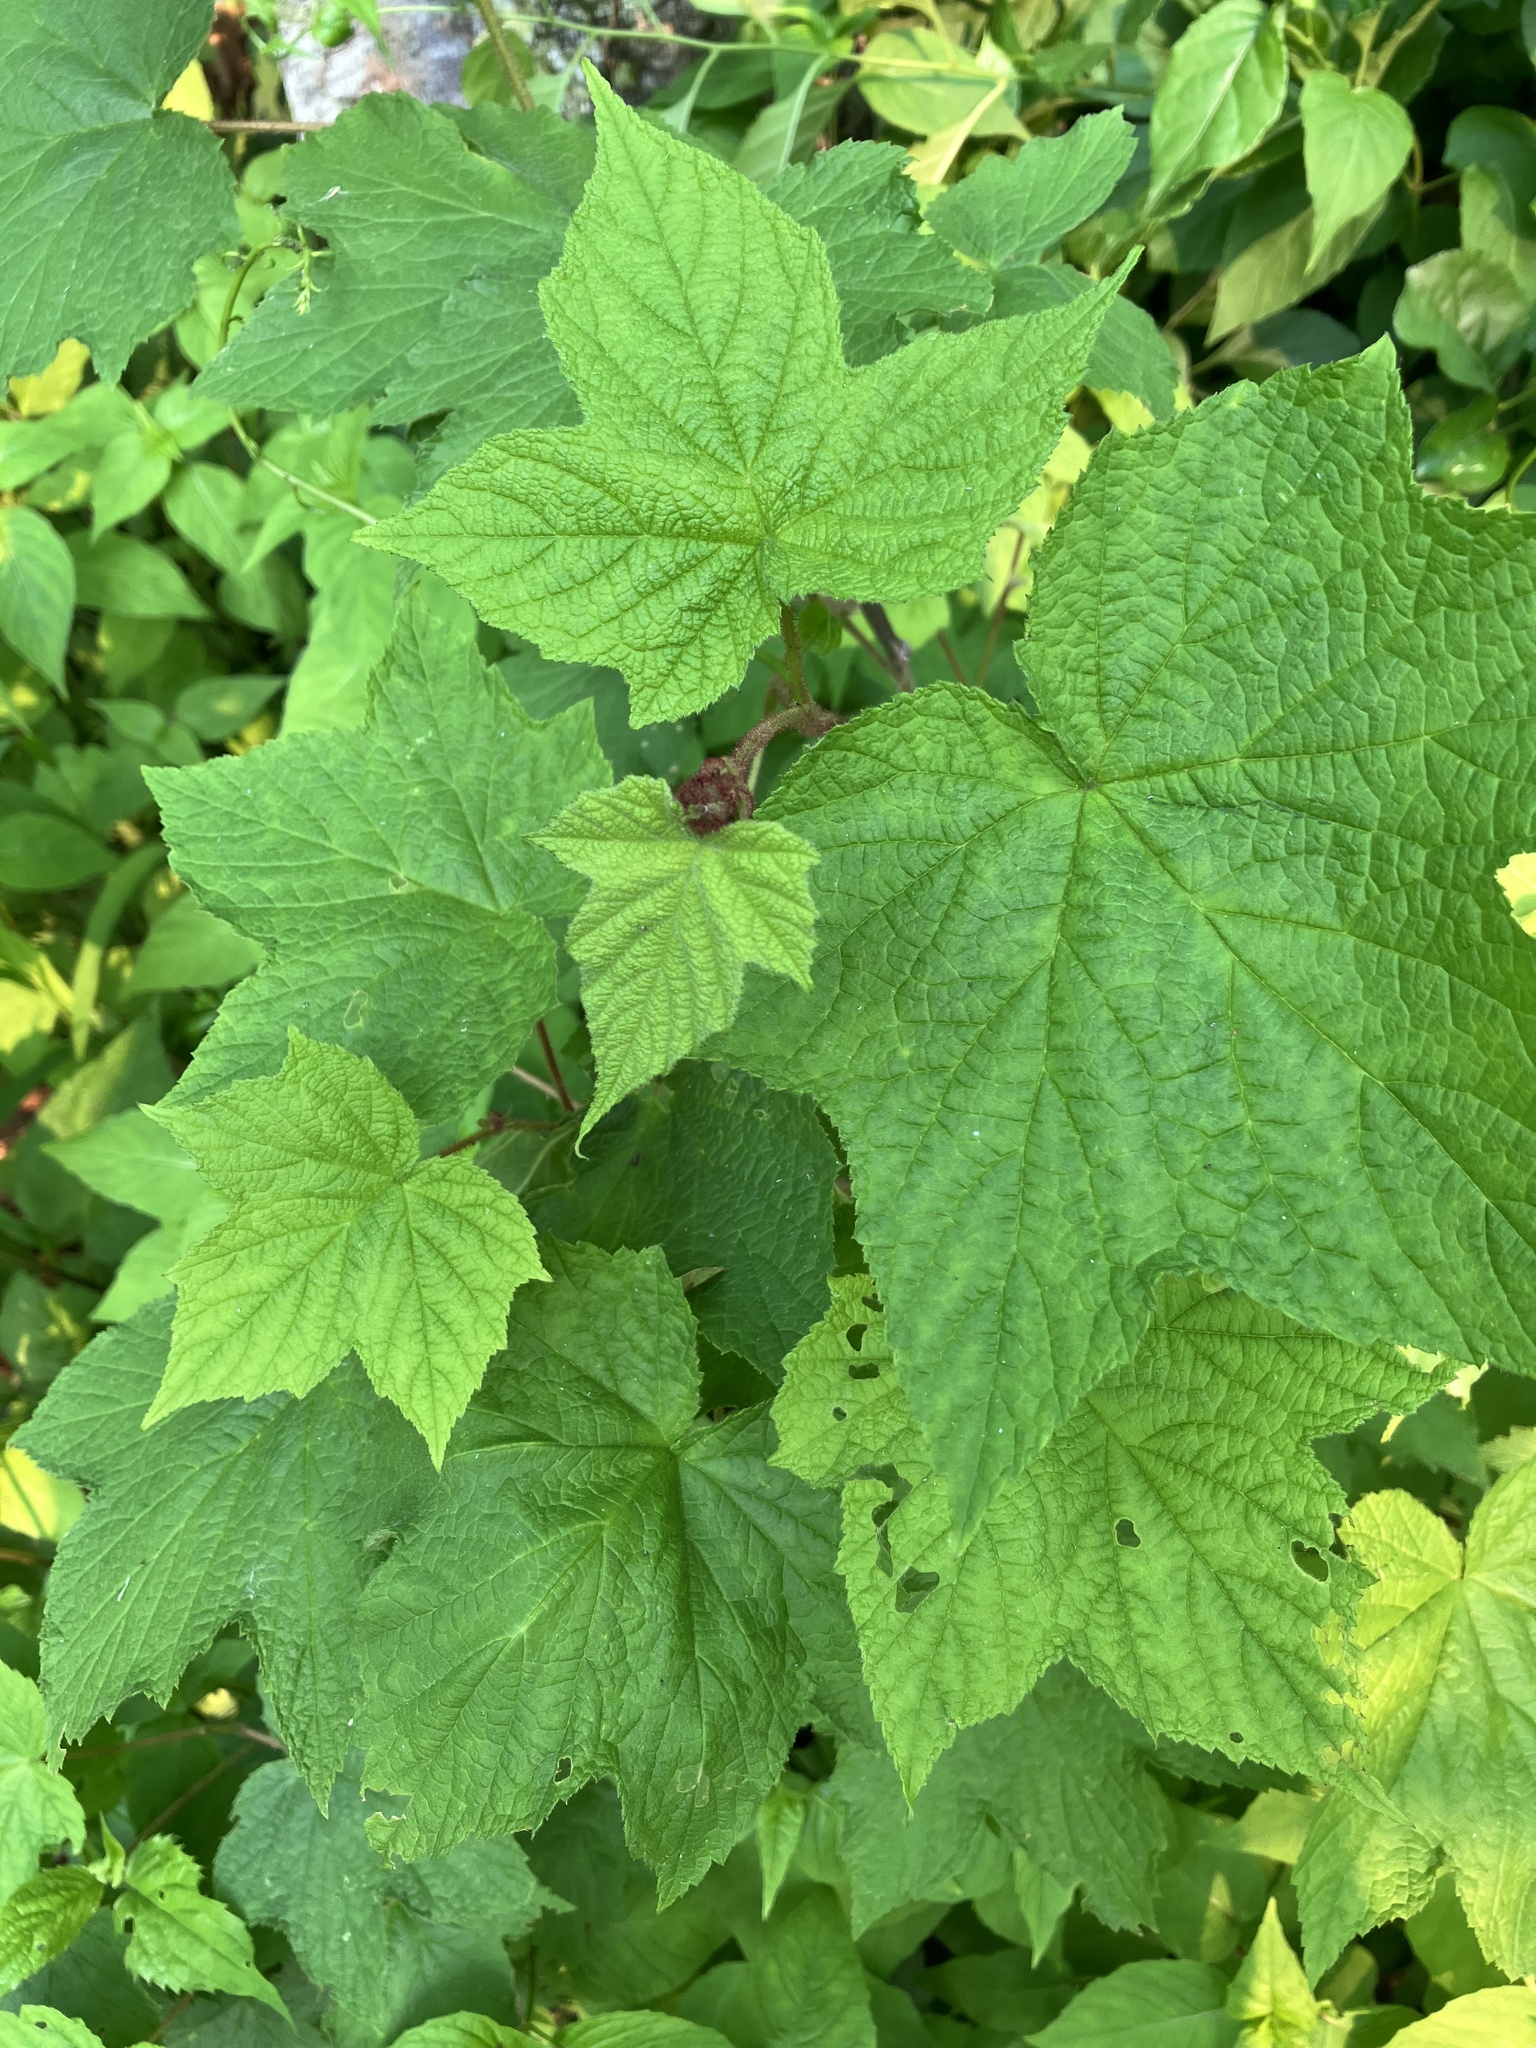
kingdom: Plantae
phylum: Tracheophyta
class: Magnoliopsida
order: Rosales
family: Rosaceae
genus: Rubus
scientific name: Rubus odoratus
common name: Purple-flowered raspberry
